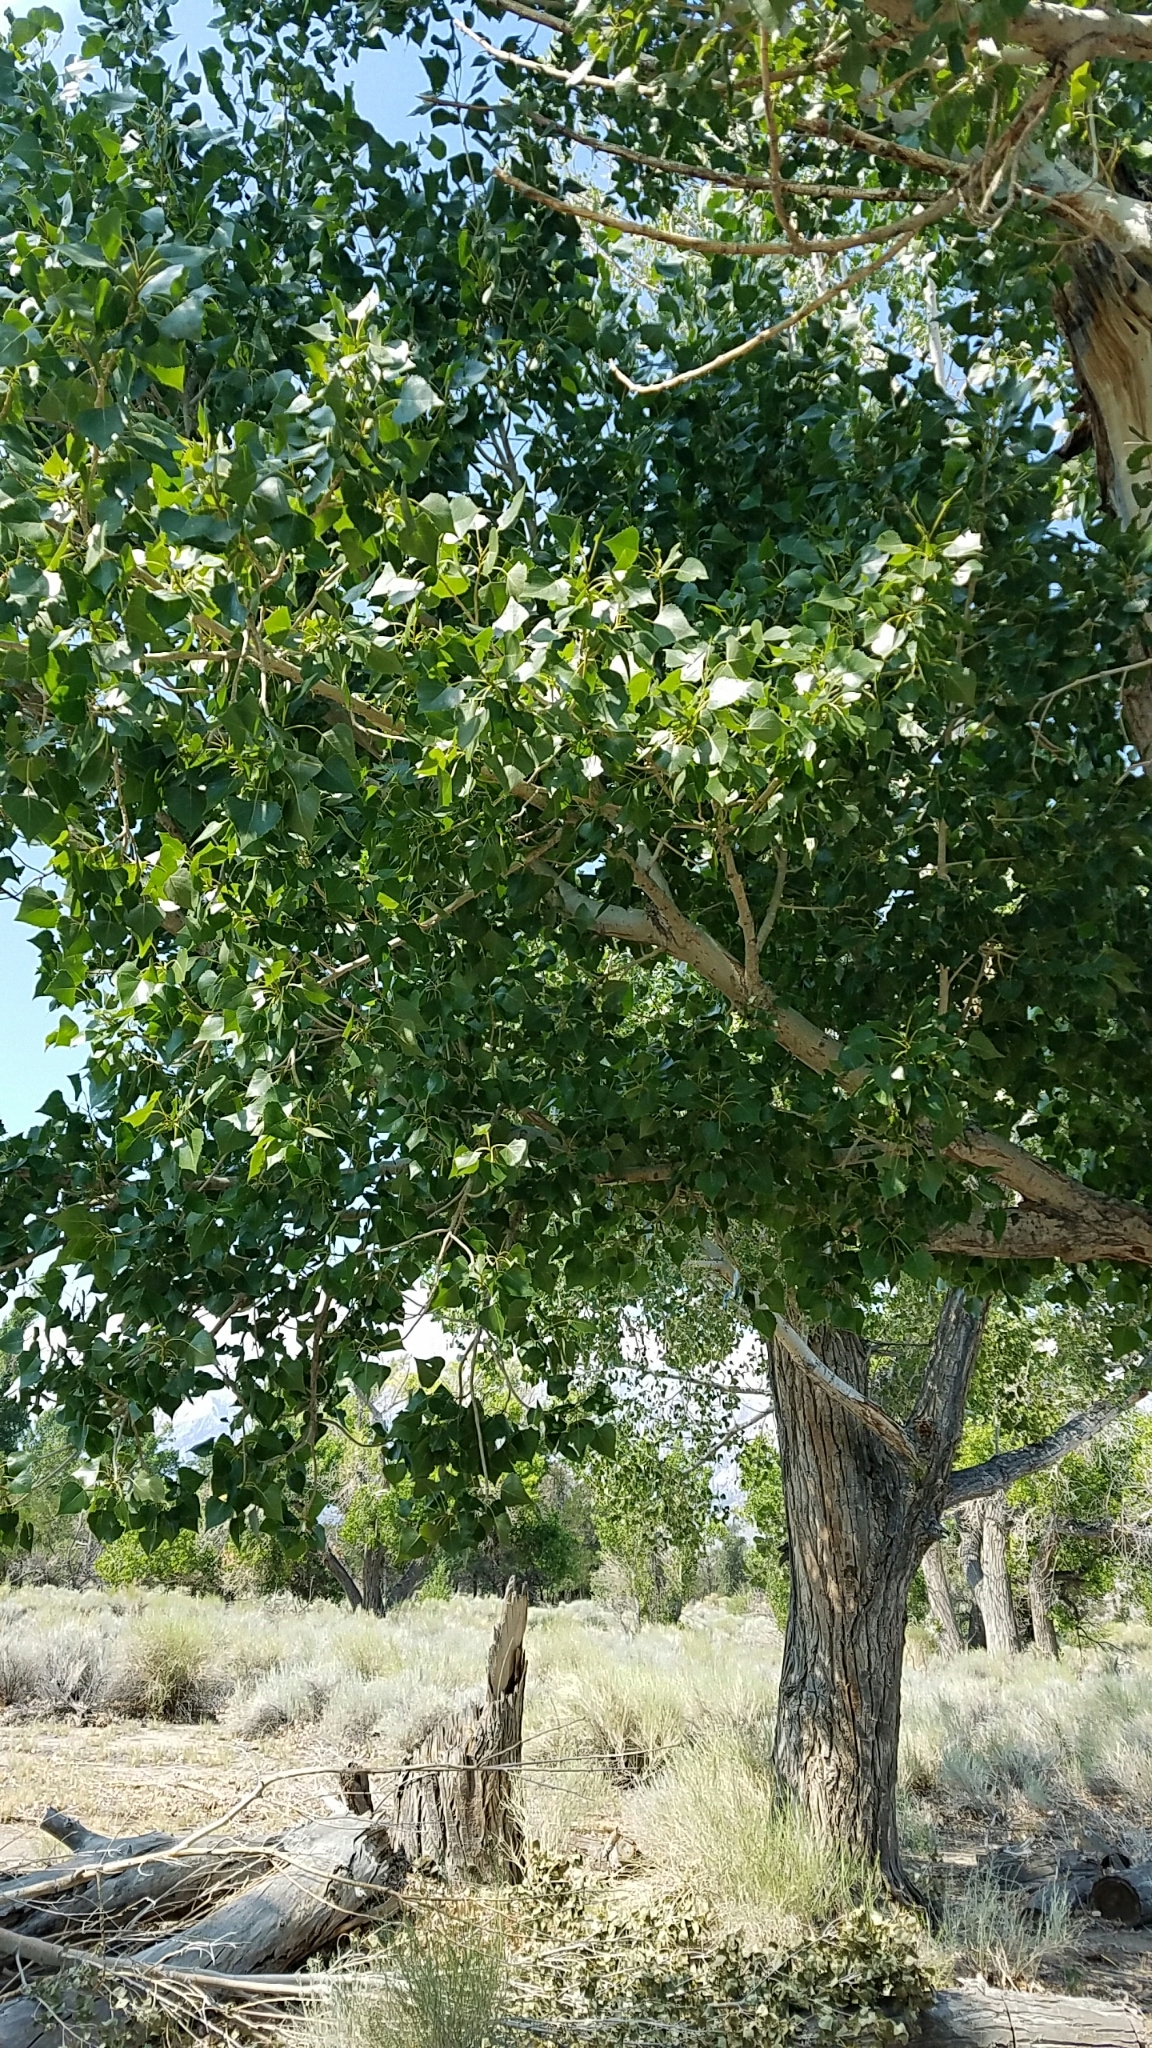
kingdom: Plantae
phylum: Tracheophyta
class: Magnoliopsida
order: Malpighiales
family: Salicaceae
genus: Populus
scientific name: Populus fremontii
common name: Fremont's cottonwood
